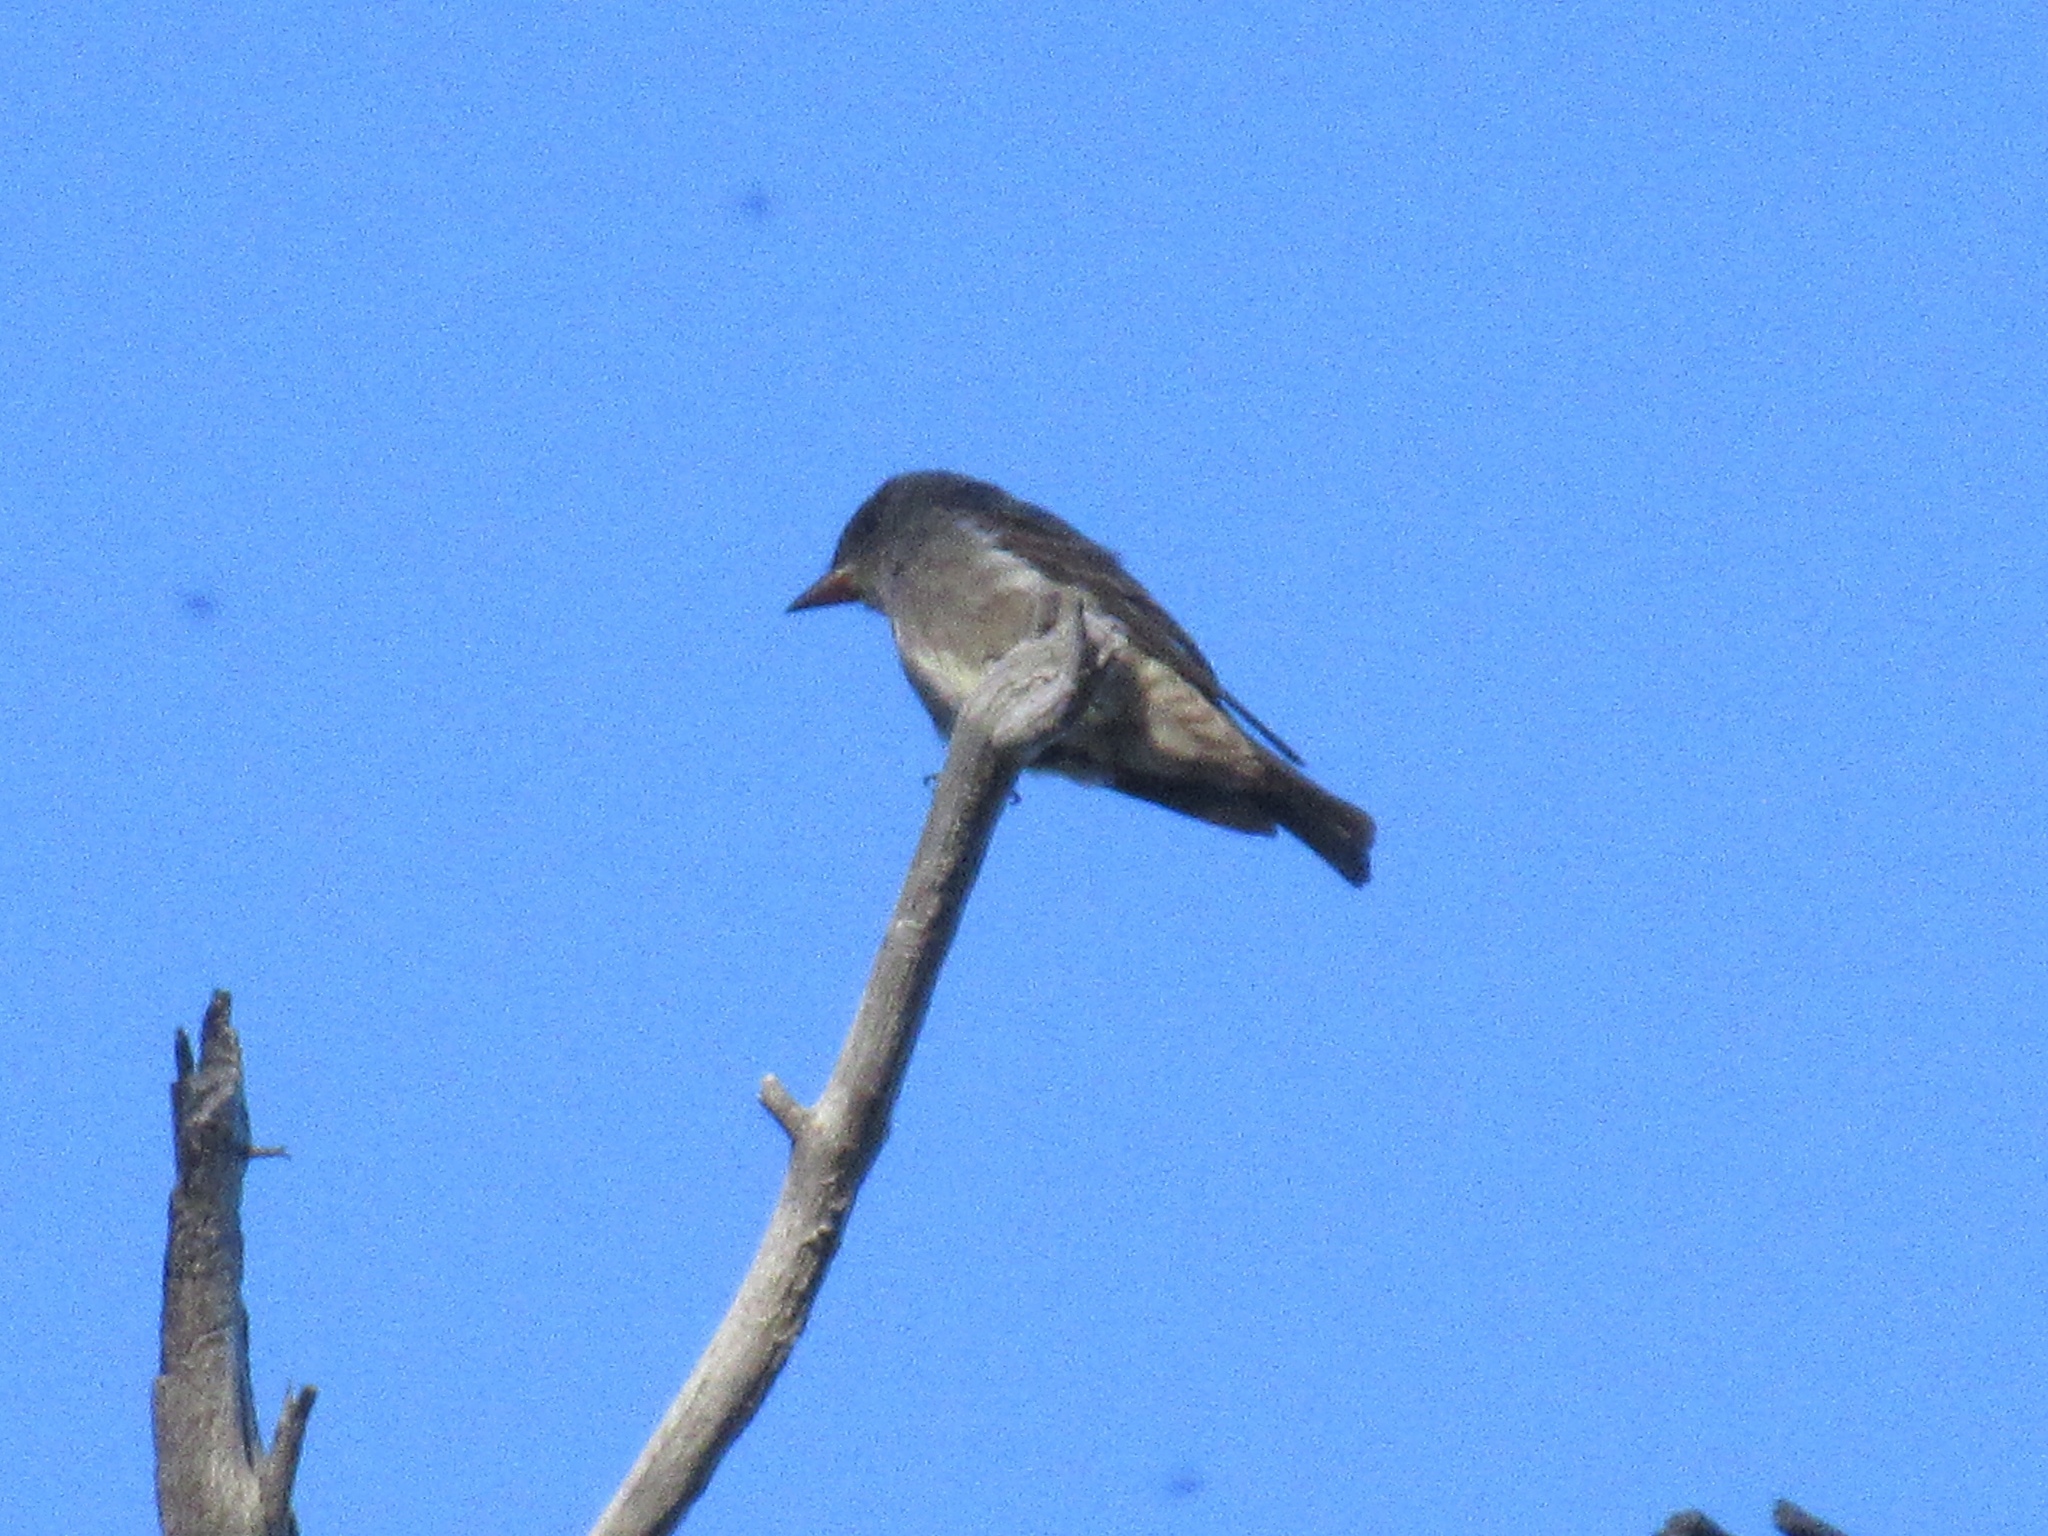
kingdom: Animalia
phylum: Chordata
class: Aves
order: Passeriformes
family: Tyrannidae
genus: Contopus
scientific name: Contopus cooperi
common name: Olive-sided flycatcher
